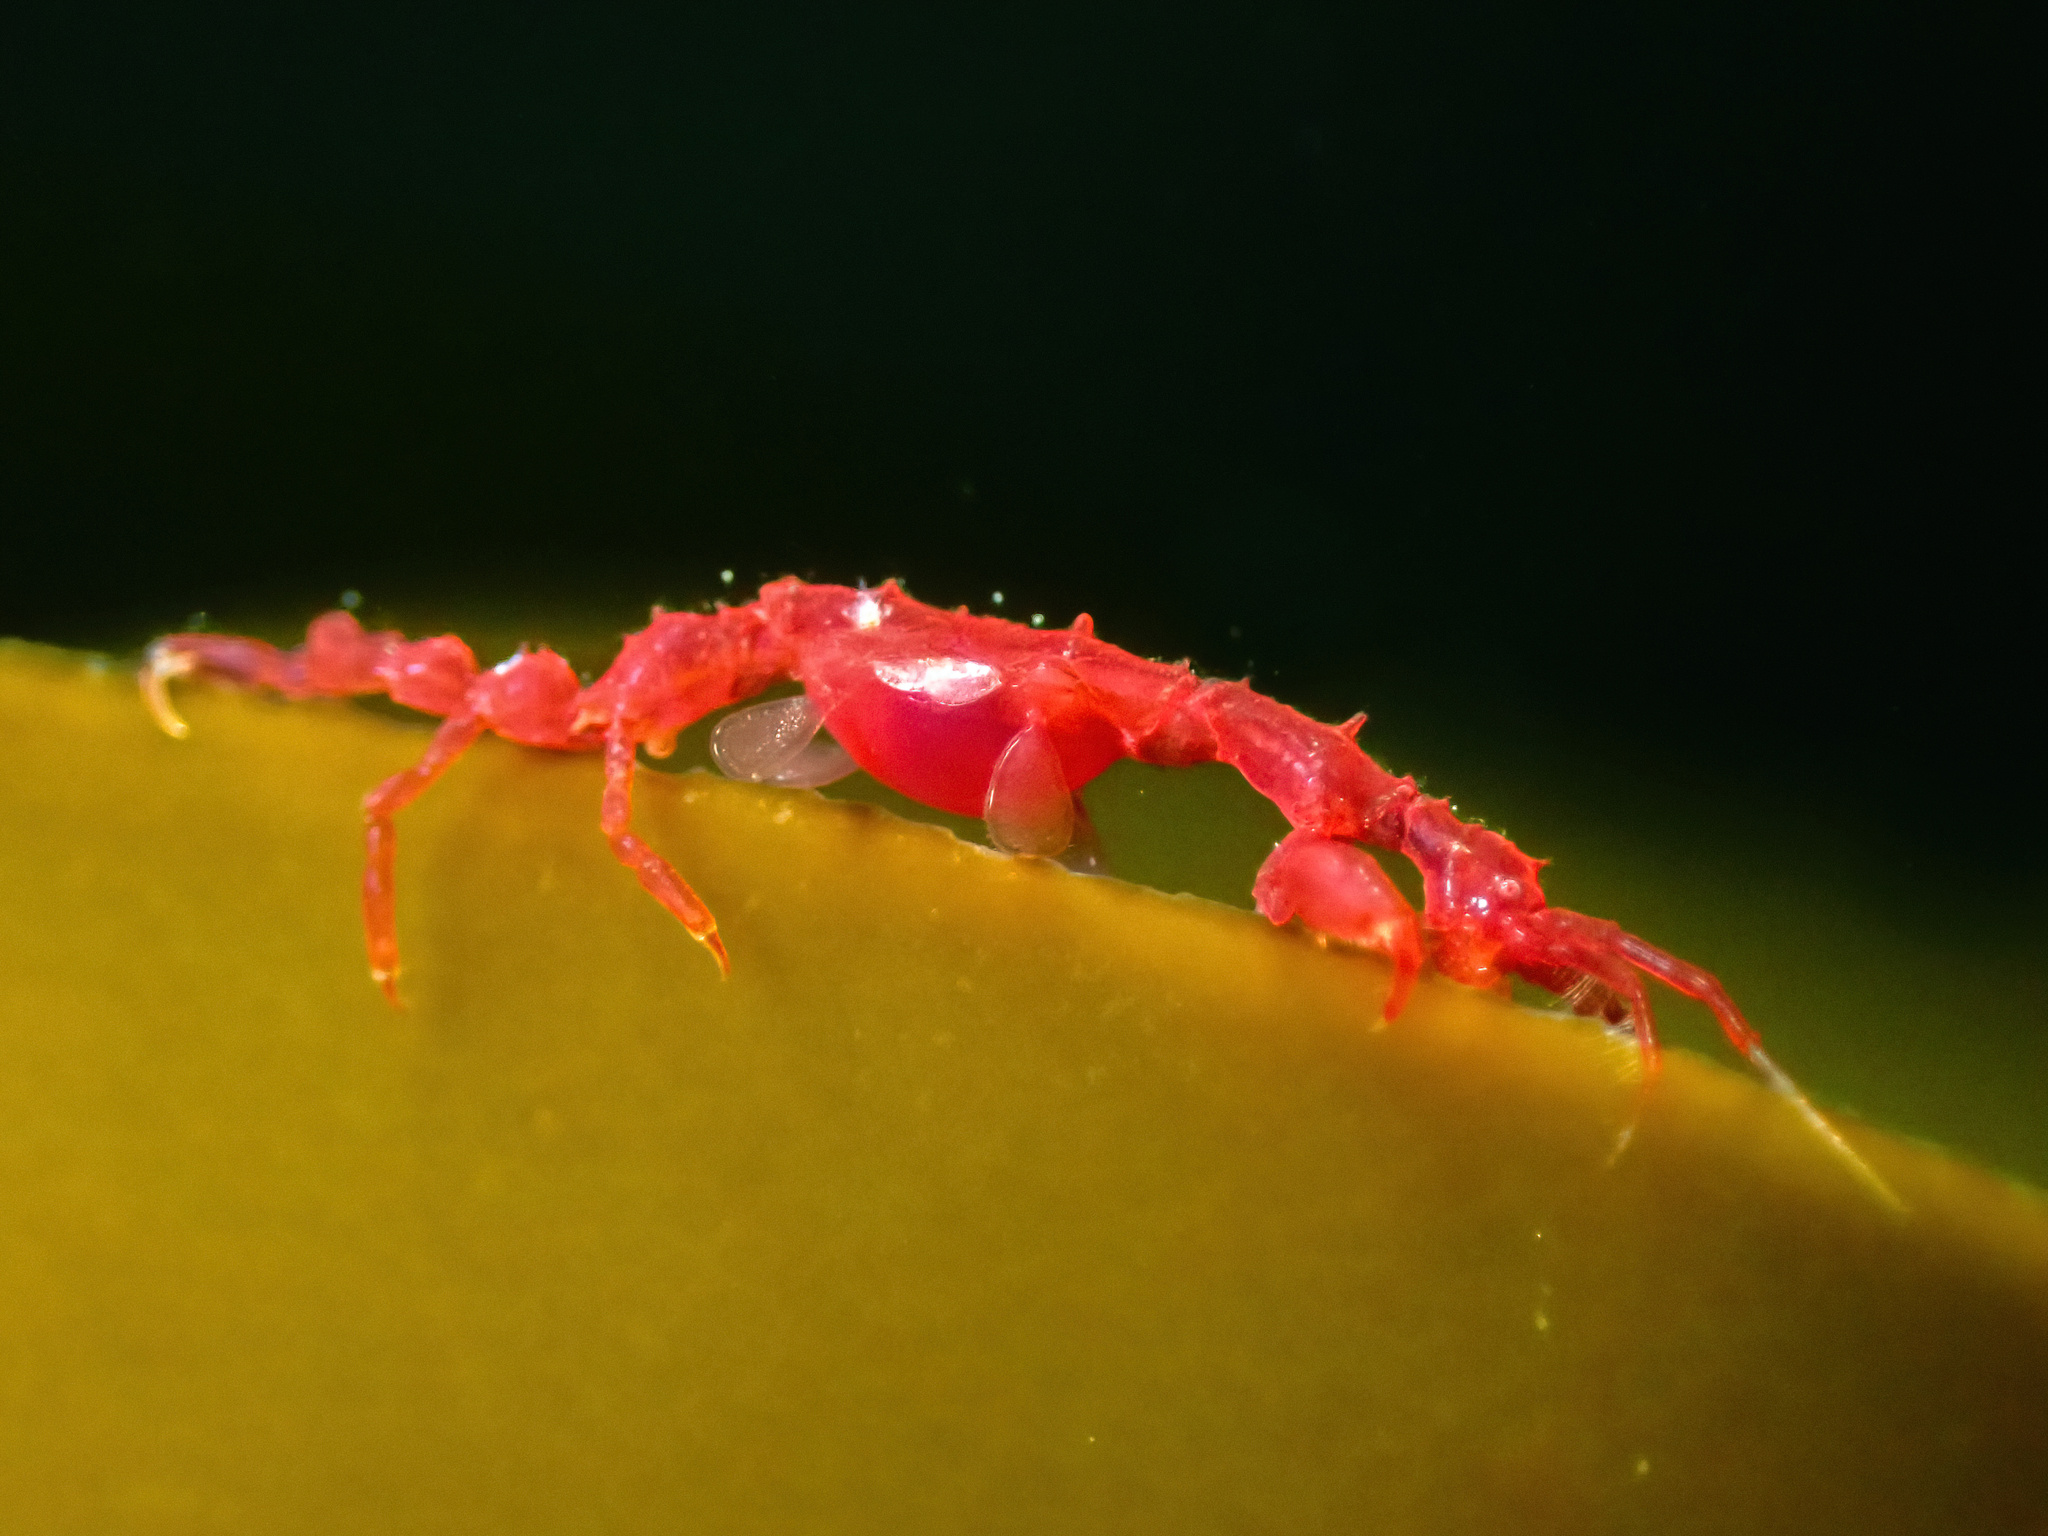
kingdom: Animalia
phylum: Arthropoda
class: Malacostraca
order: Amphipoda
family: Caprellidae
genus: Caprella
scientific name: Caprella septentrionalis
